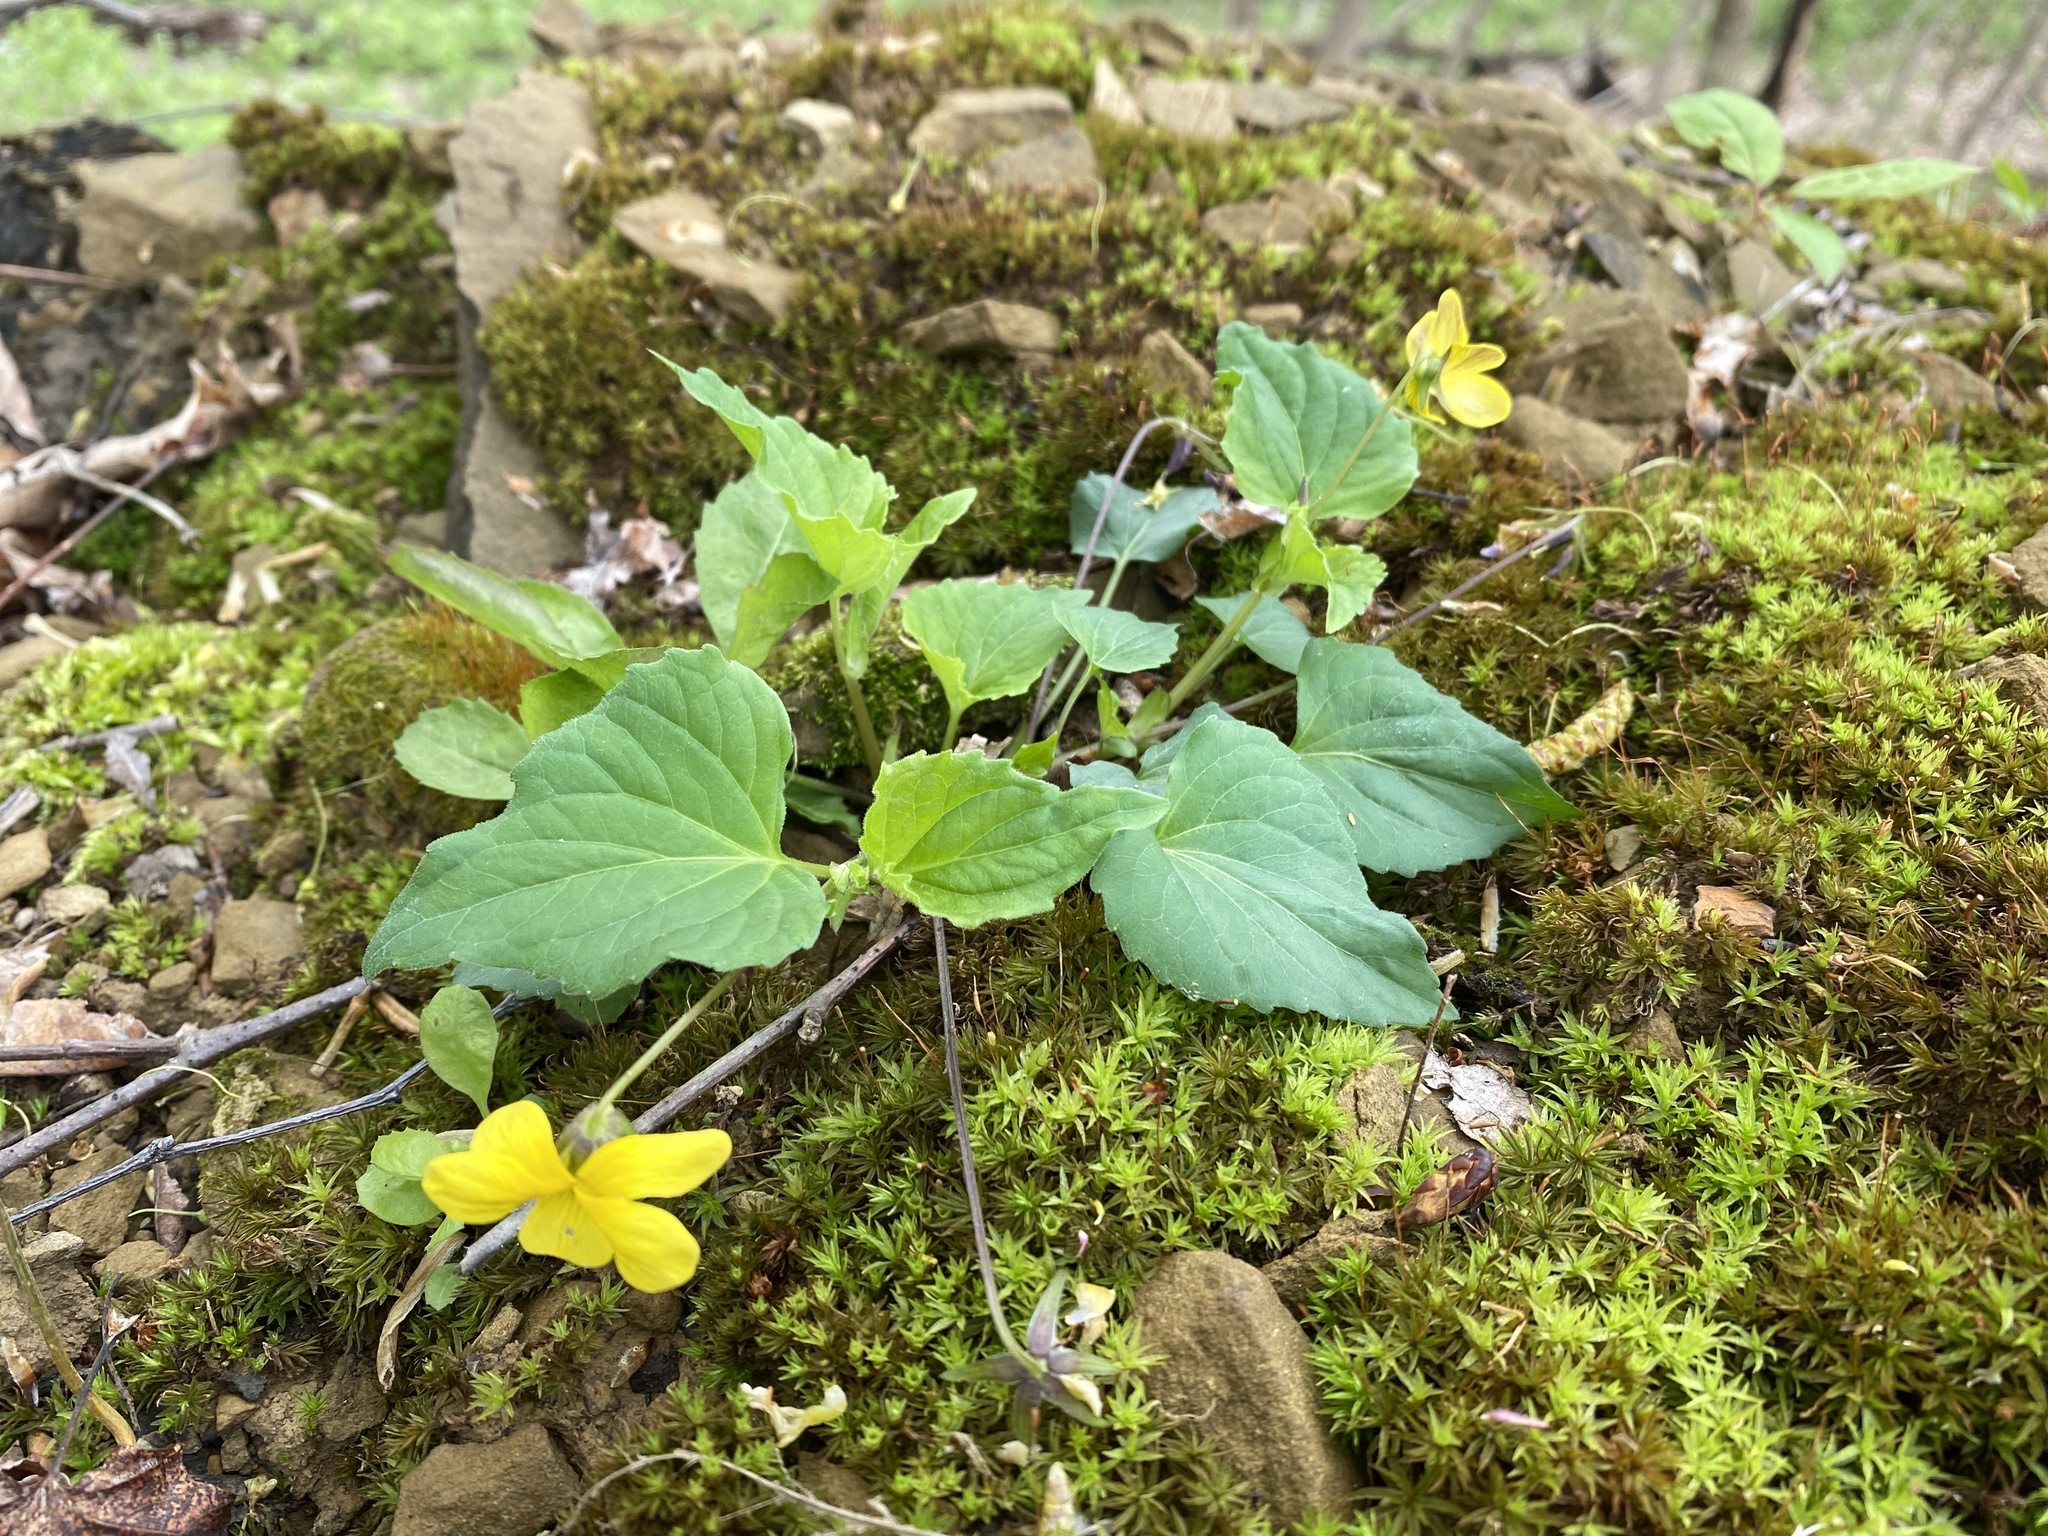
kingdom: Plantae
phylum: Tracheophyta
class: Magnoliopsida
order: Malpighiales
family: Violaceae
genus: Viola
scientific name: Viola eriocarpa
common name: Smooth yellow violet
